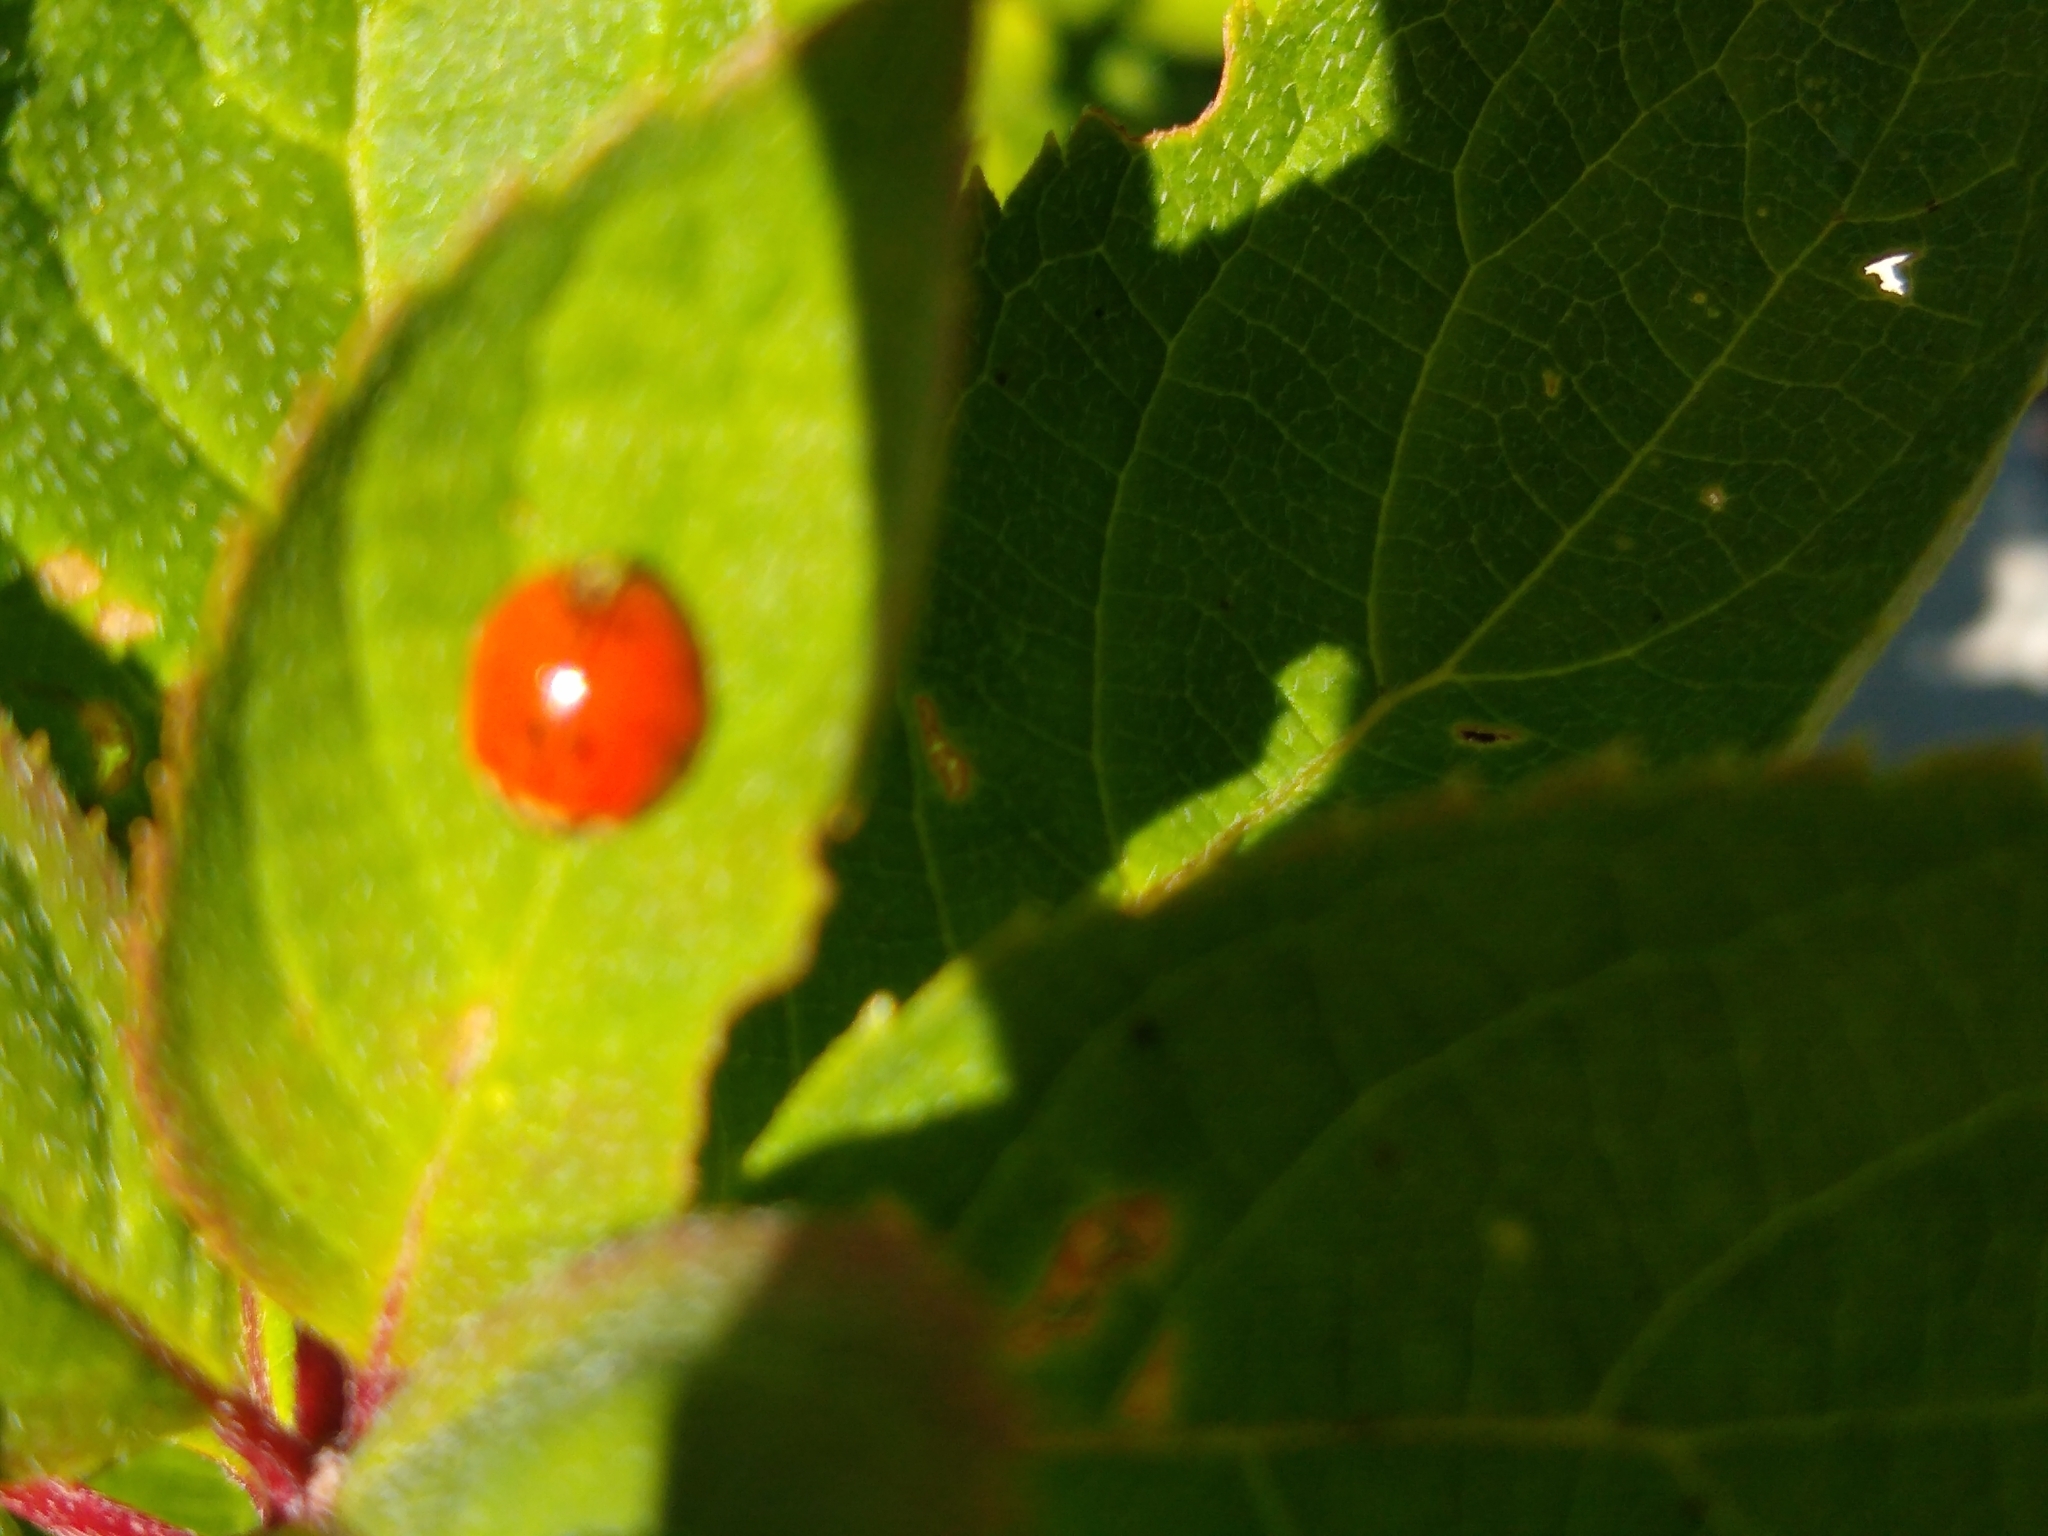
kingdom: Animalia
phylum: Arthropoda
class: Insecta
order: Coleoptera
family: Coccinellidae
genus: Harmonia
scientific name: Harmonia axyridis
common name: Harlequin ladybird
